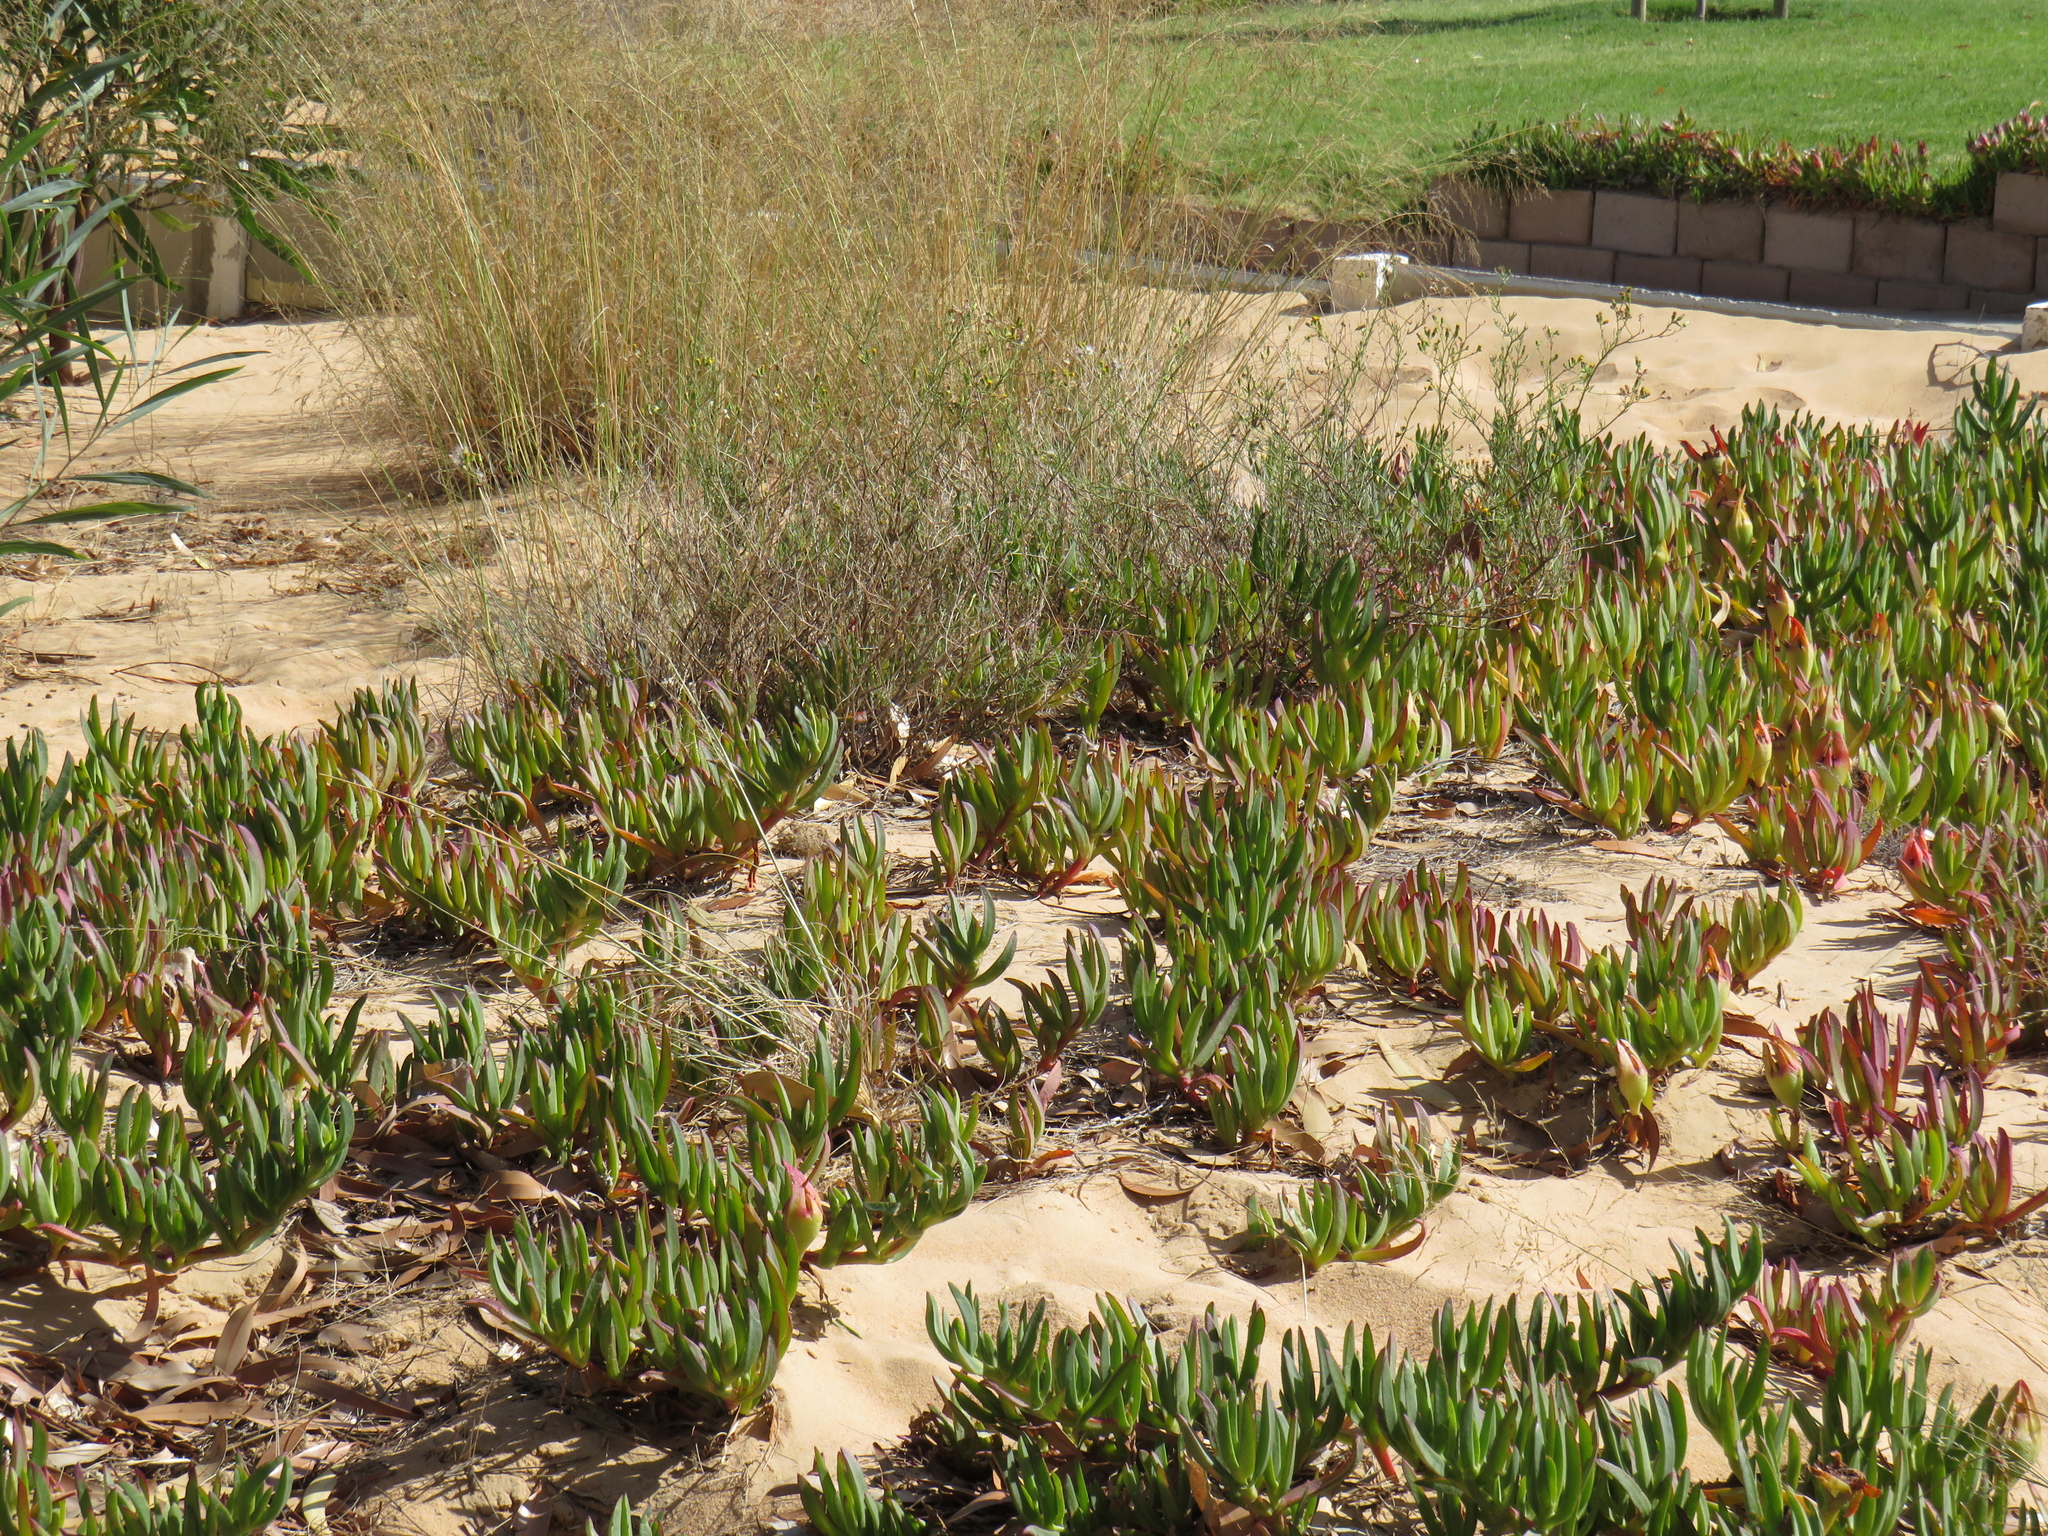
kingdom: Plantae
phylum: Tracheophyta
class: Magnoliopsida
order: Caryophyllales
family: Aizoaceae
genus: Carpobrotus
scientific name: Carpobrotus edulis
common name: Hottentot-fig
